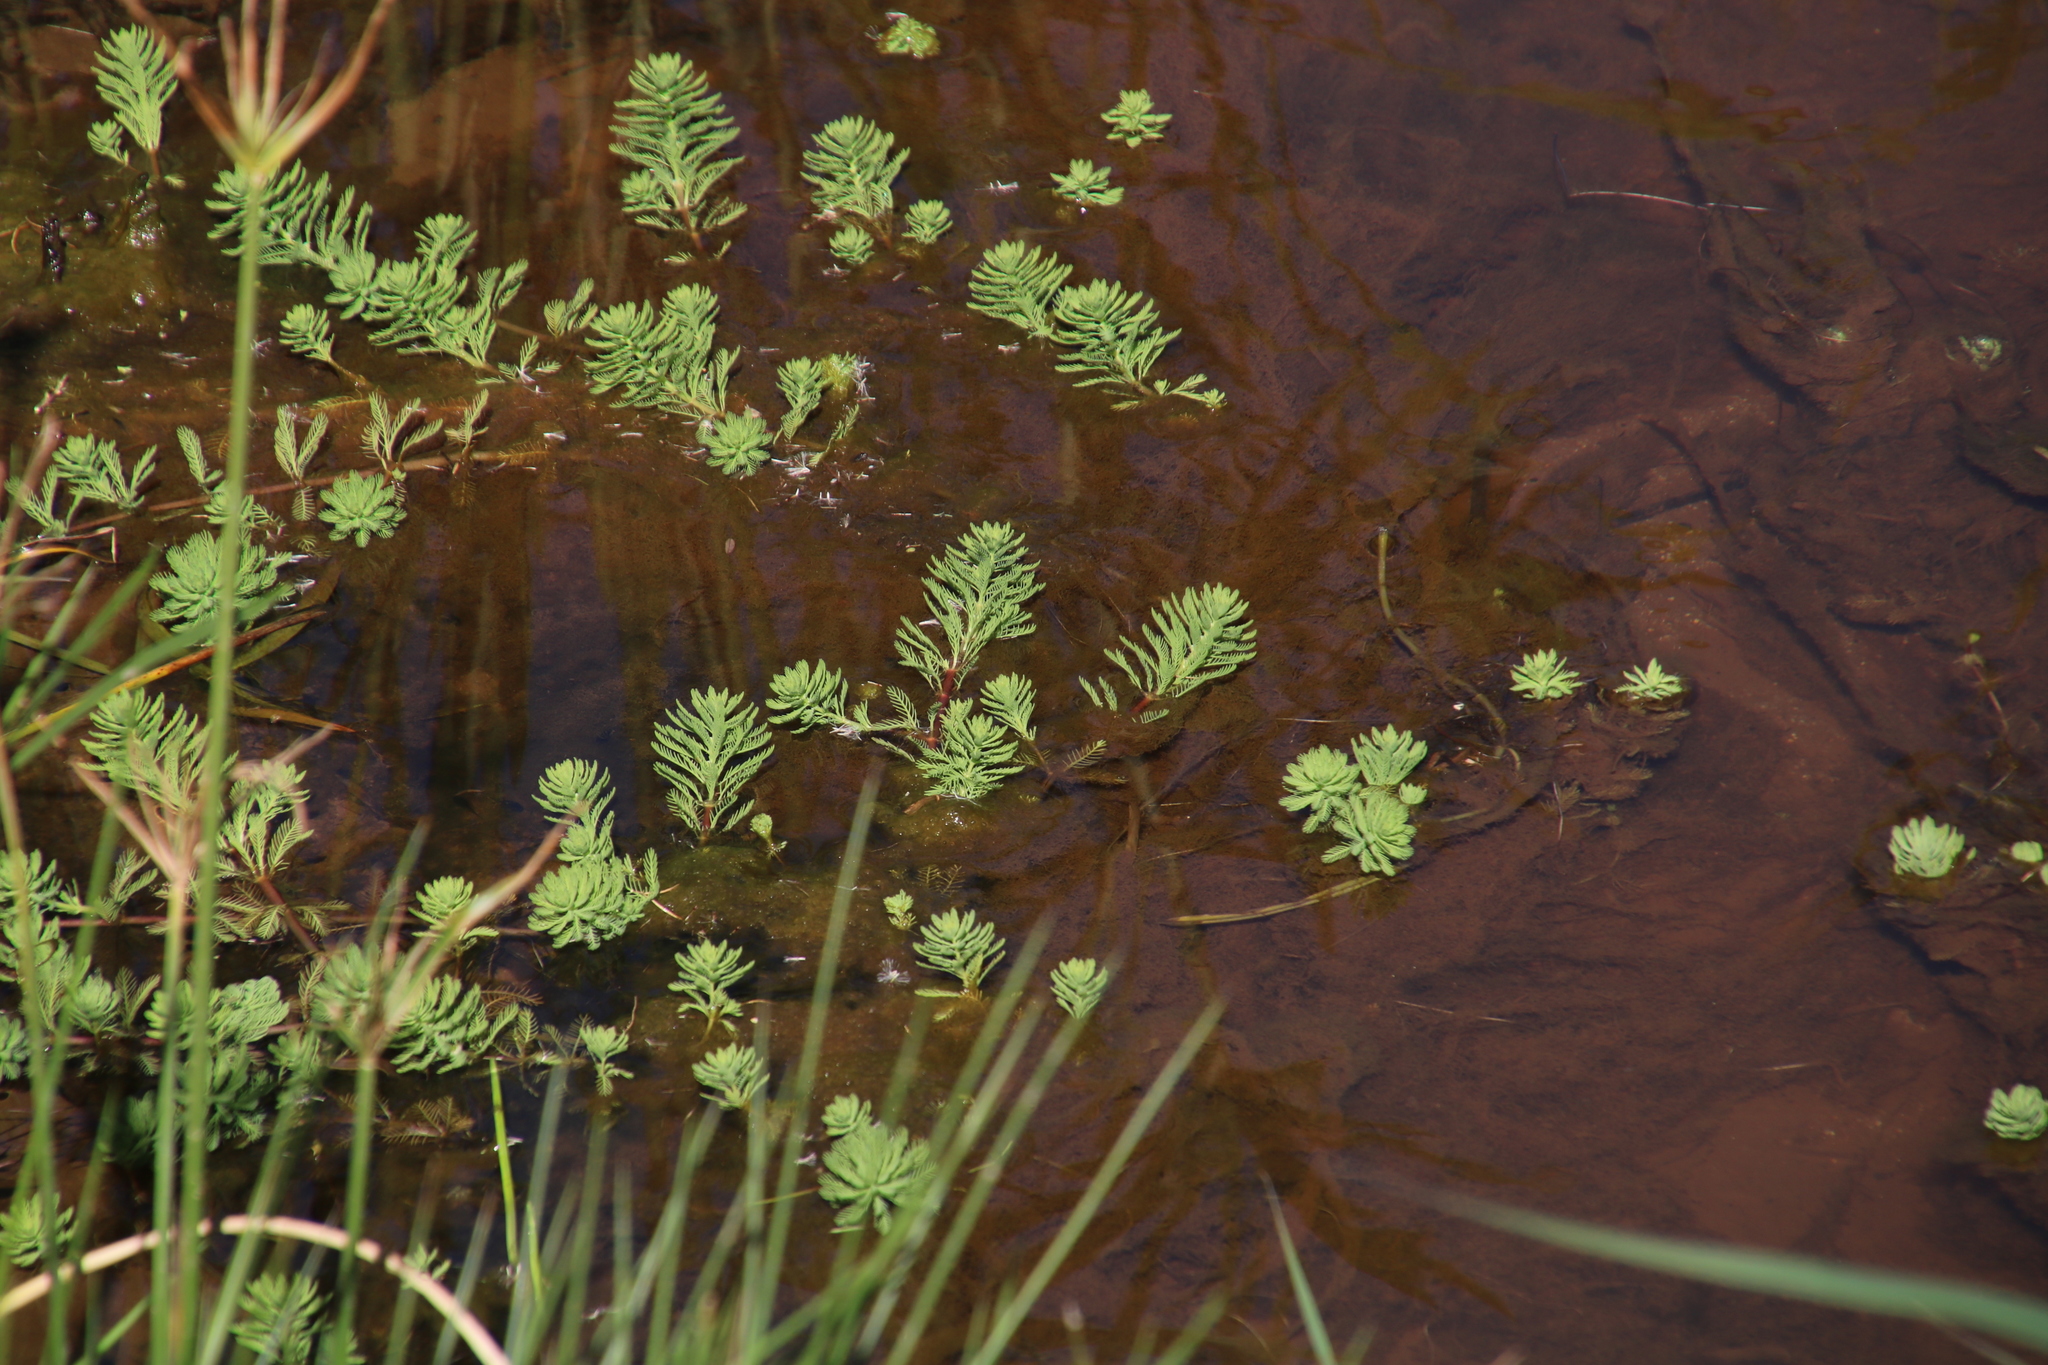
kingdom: Plantae
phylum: Tracheophyta
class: Magnoliopsida
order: Saxifragales
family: Haloragaceae
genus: Myriophyllum
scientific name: Myriophyllum aquaticum
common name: Parrot's feather
